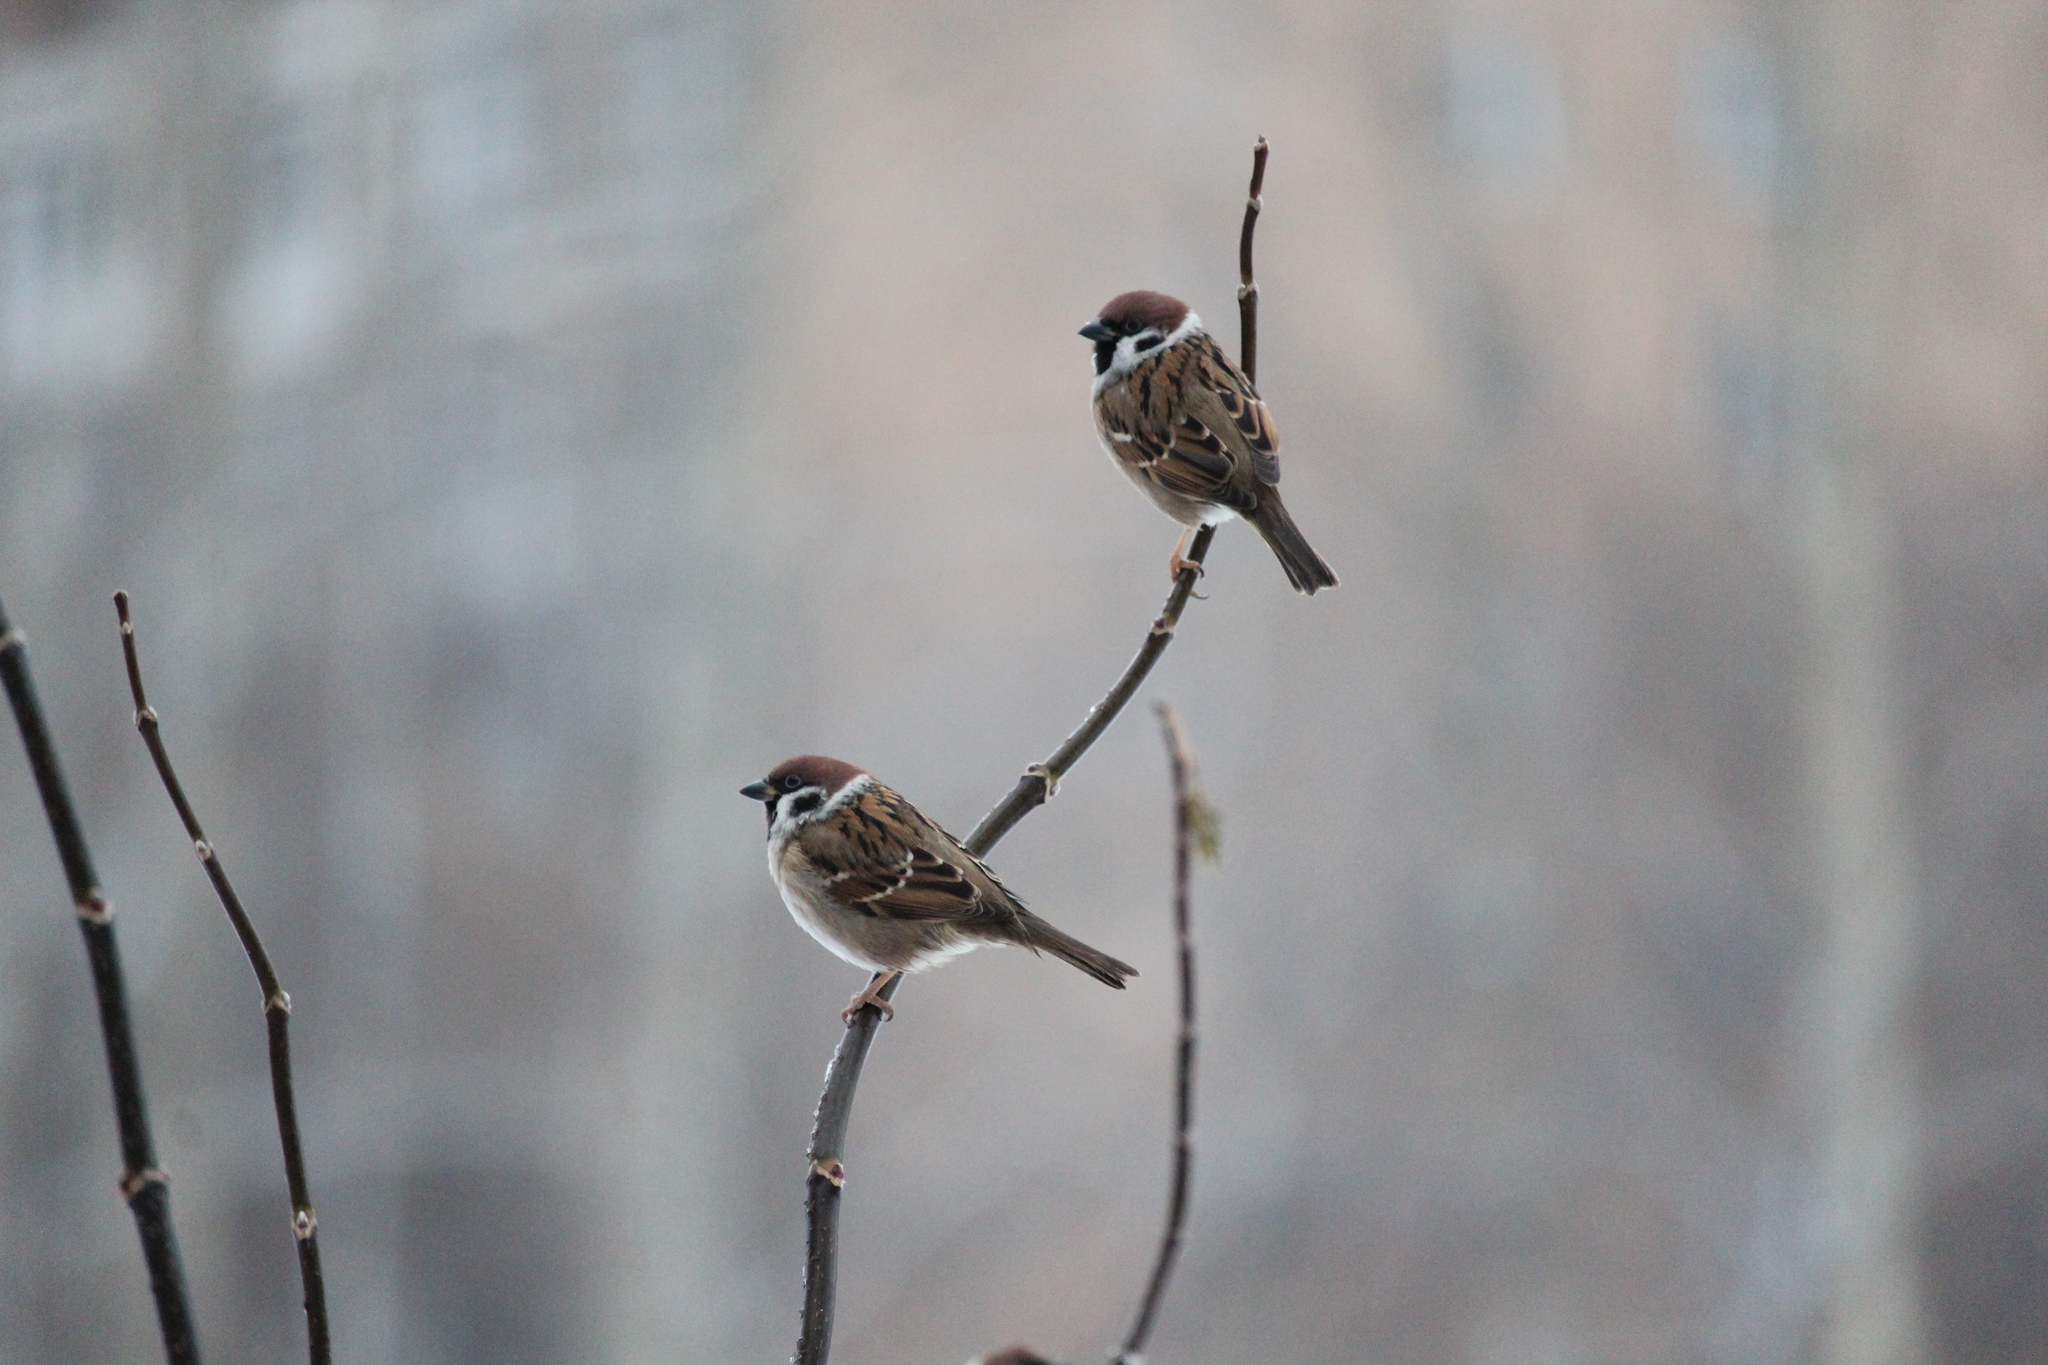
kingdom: Animalia
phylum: Chordata
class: Aves
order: Passeriformes
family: Passeridae
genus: Passer
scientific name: Passer montanus
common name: Eurasian tree sparrow
